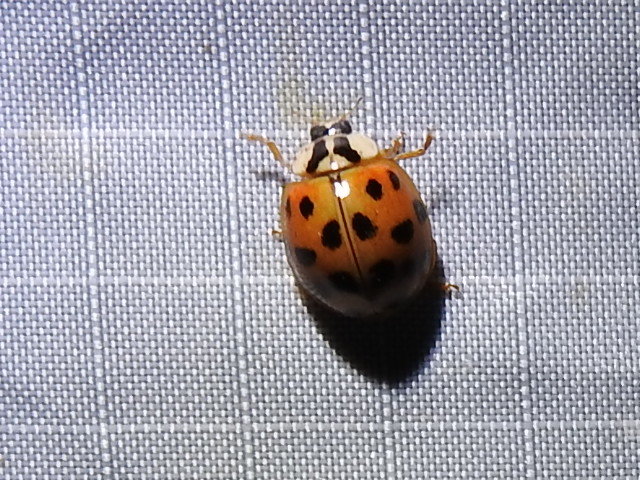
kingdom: Animalia
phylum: Arthropoda
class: Insecta
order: Coleoptera
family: Coccinellidae
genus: Harmonia
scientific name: Harmonia axyridis
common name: Harlequin ladybird
